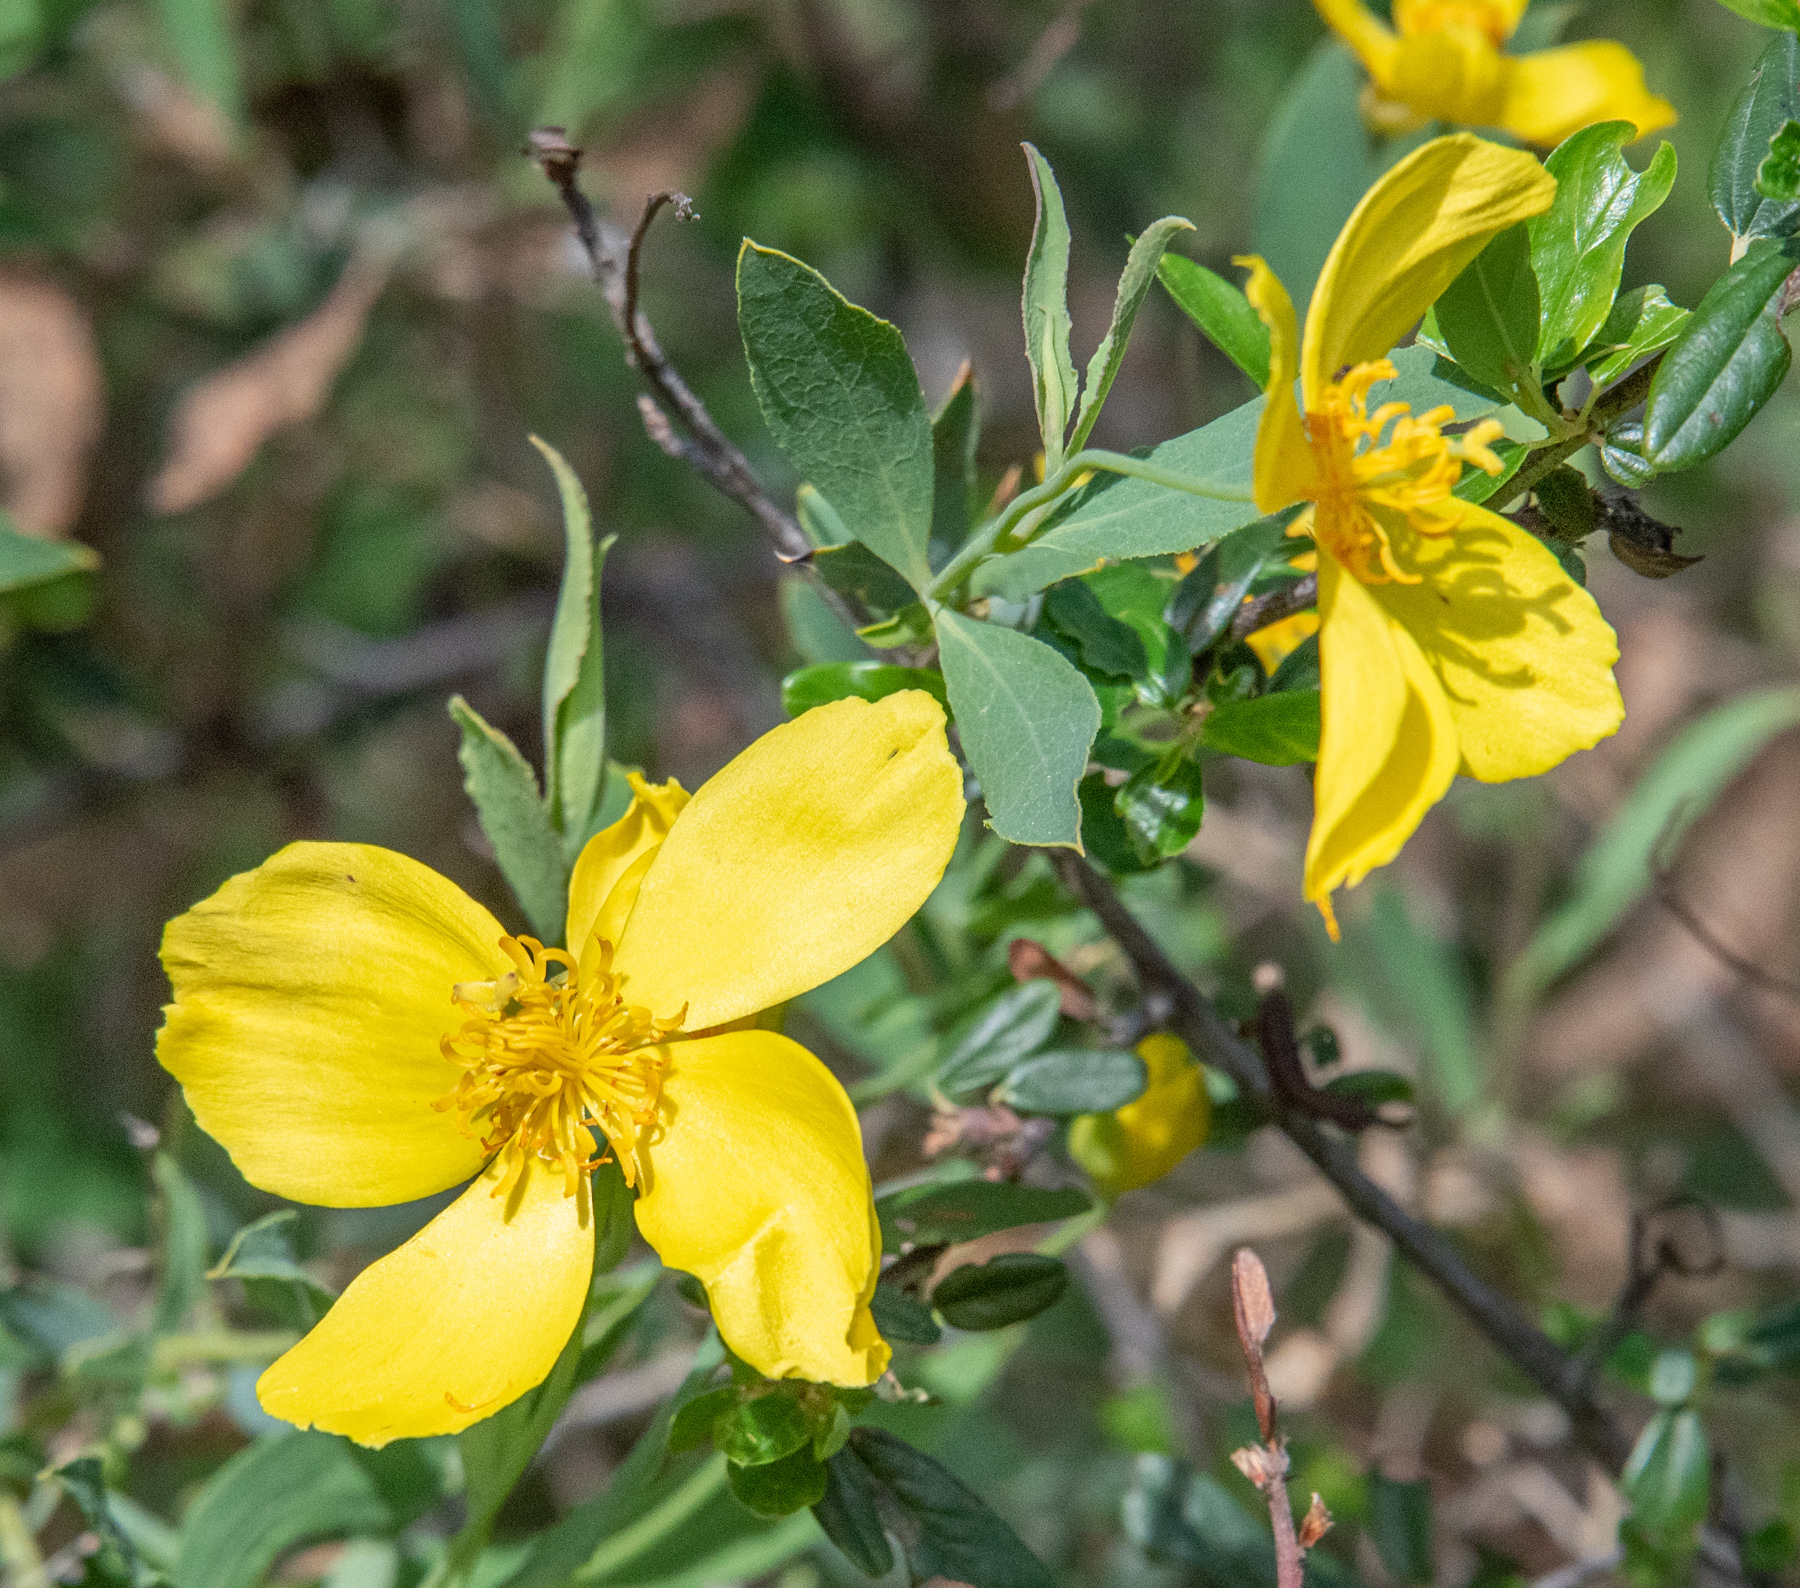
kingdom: Plantae
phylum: Tracheophyta
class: Magnoliopsida
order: Ranunculales
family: Papaveraceae
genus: Dendromecon
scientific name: Dendromecon rigida
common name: Tree poppy
